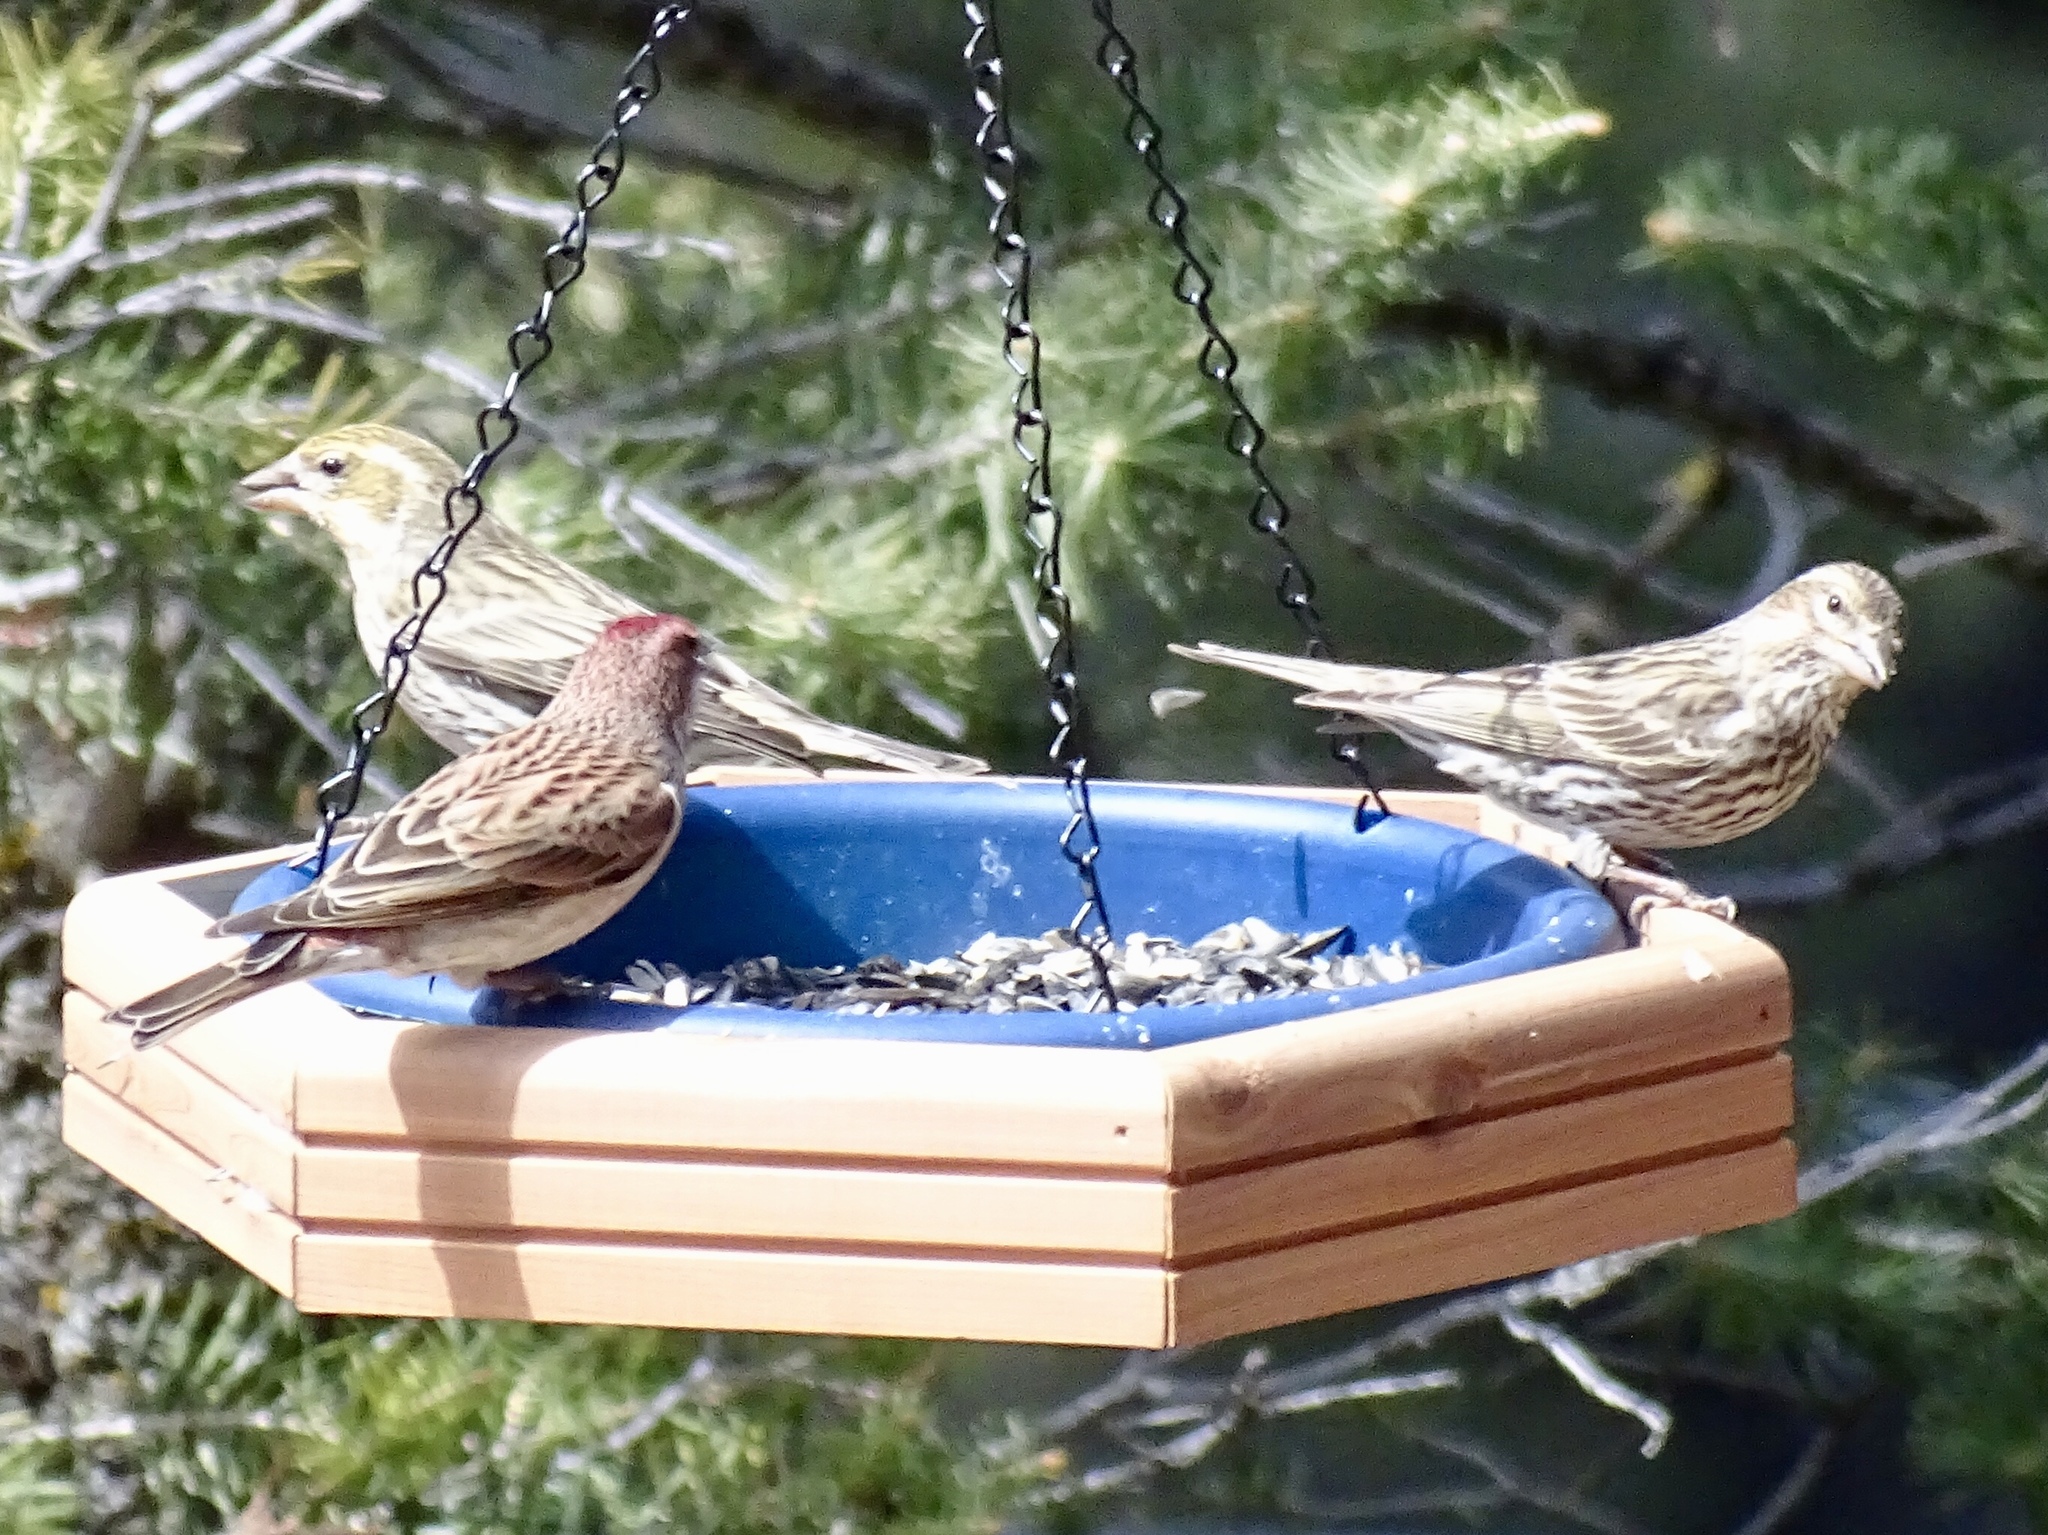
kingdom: Animalia
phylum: Chordata
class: Aves
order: Passeriformes
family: Fringillidae
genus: Haemorhous
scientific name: Haemorhous cassinii
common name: Cassin's finch
